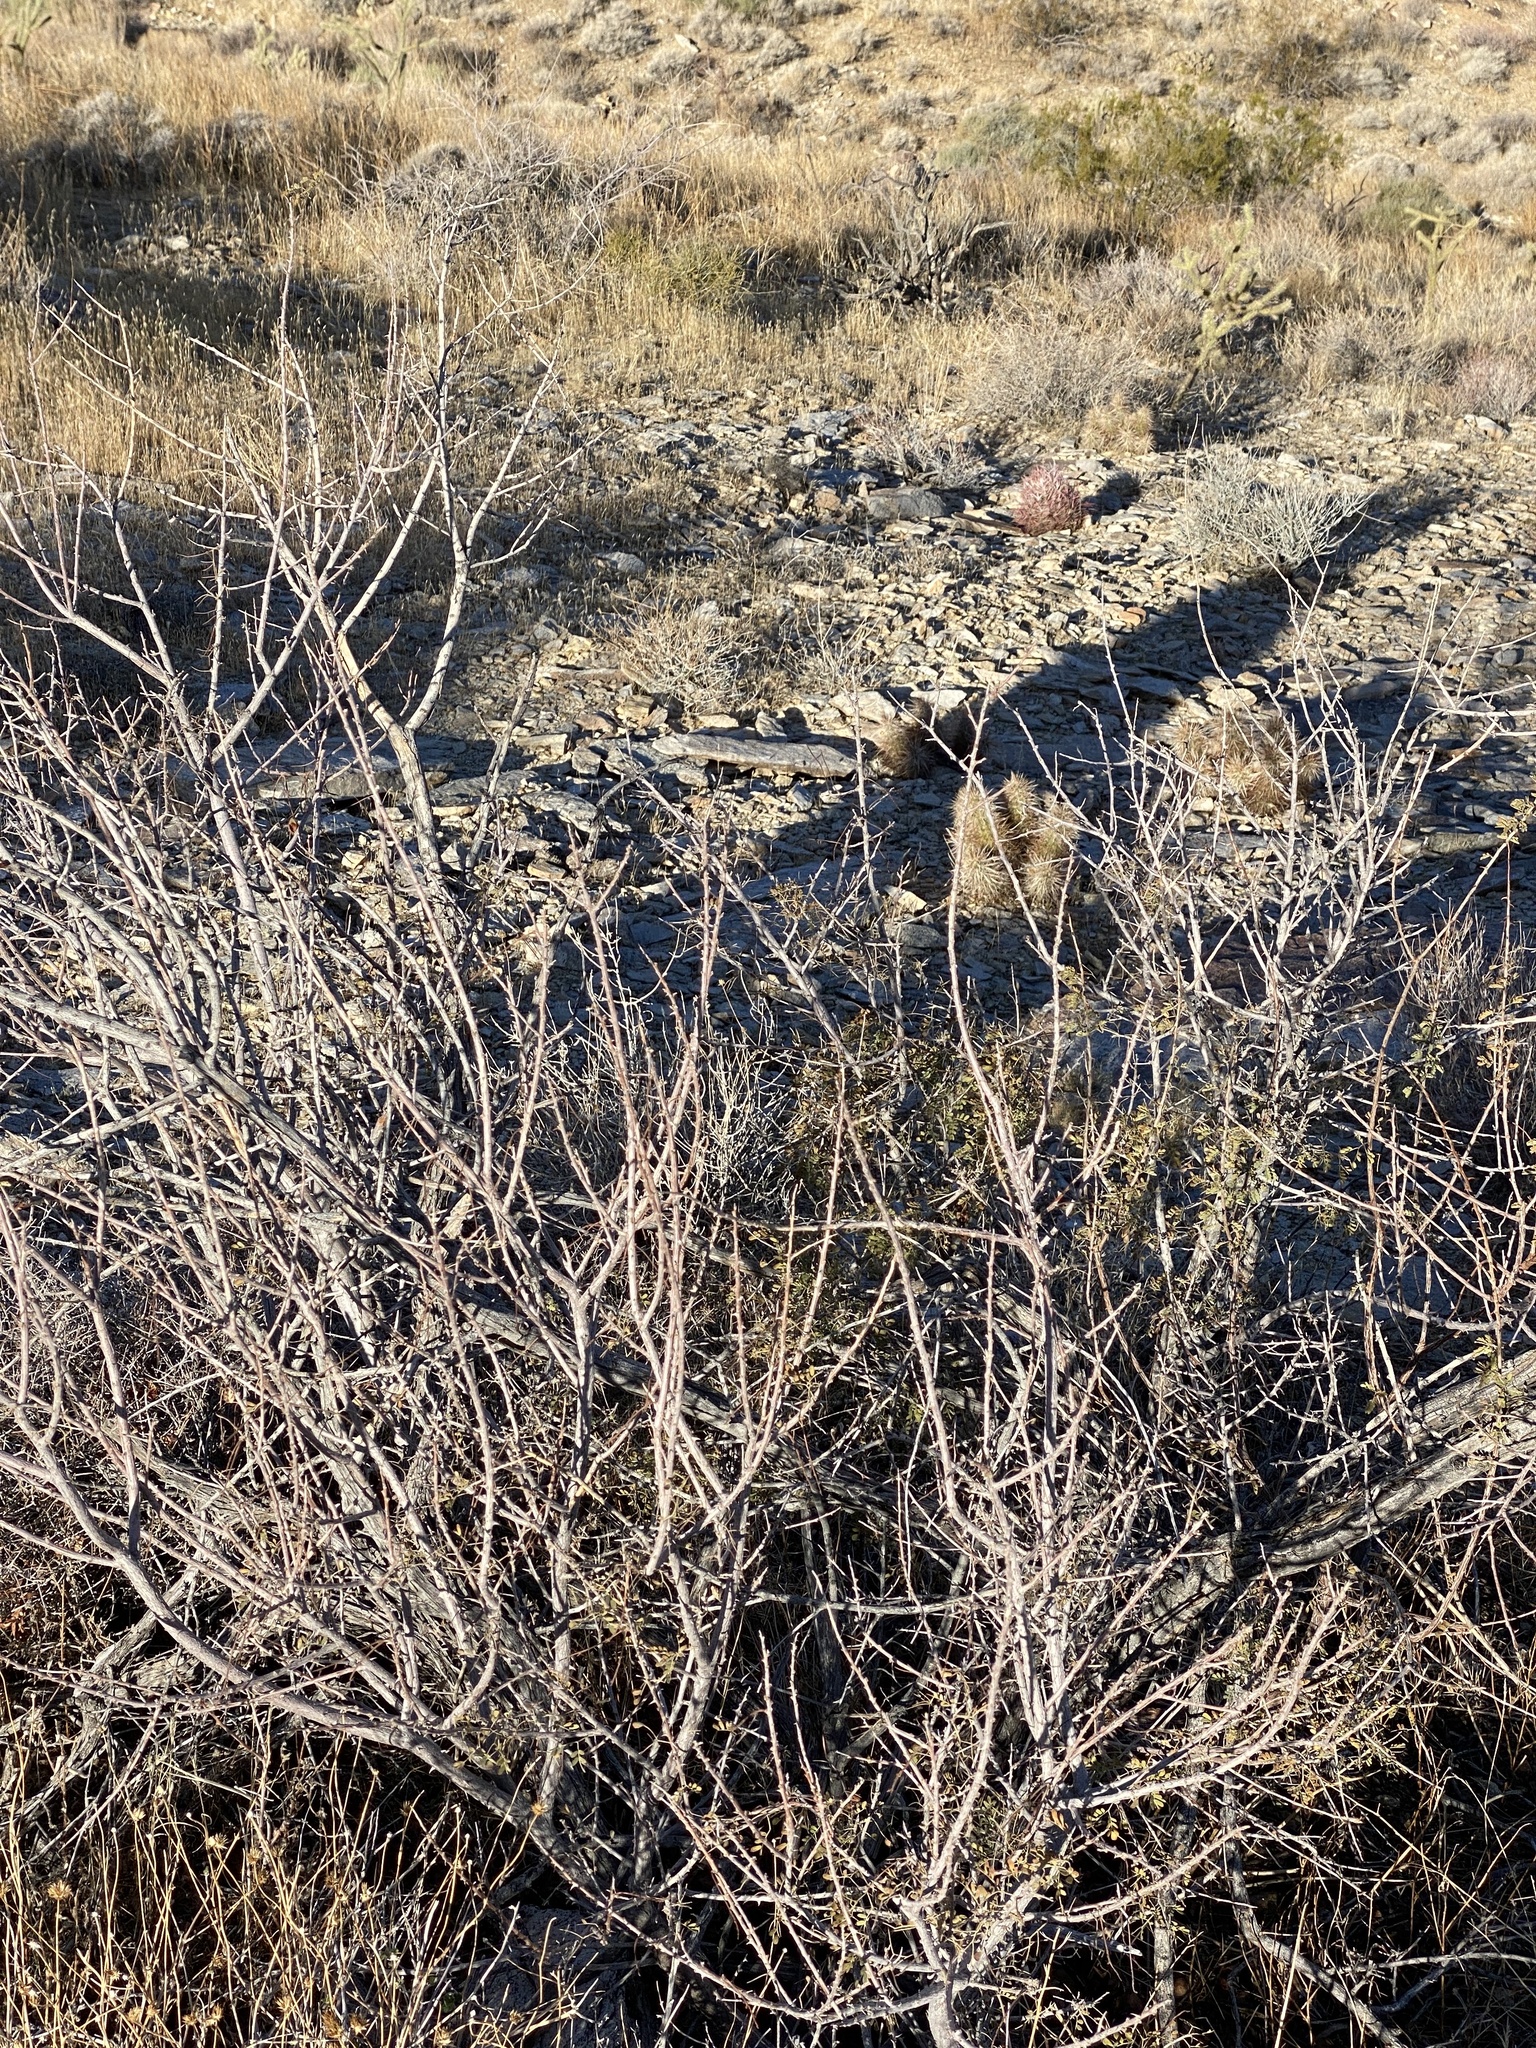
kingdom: Plantae
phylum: Tracheophyta
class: Magnoliopsida
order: Fabales
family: Fabaceae
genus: Senegalia
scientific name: Senegalia greggii
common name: Texas-mimosa
